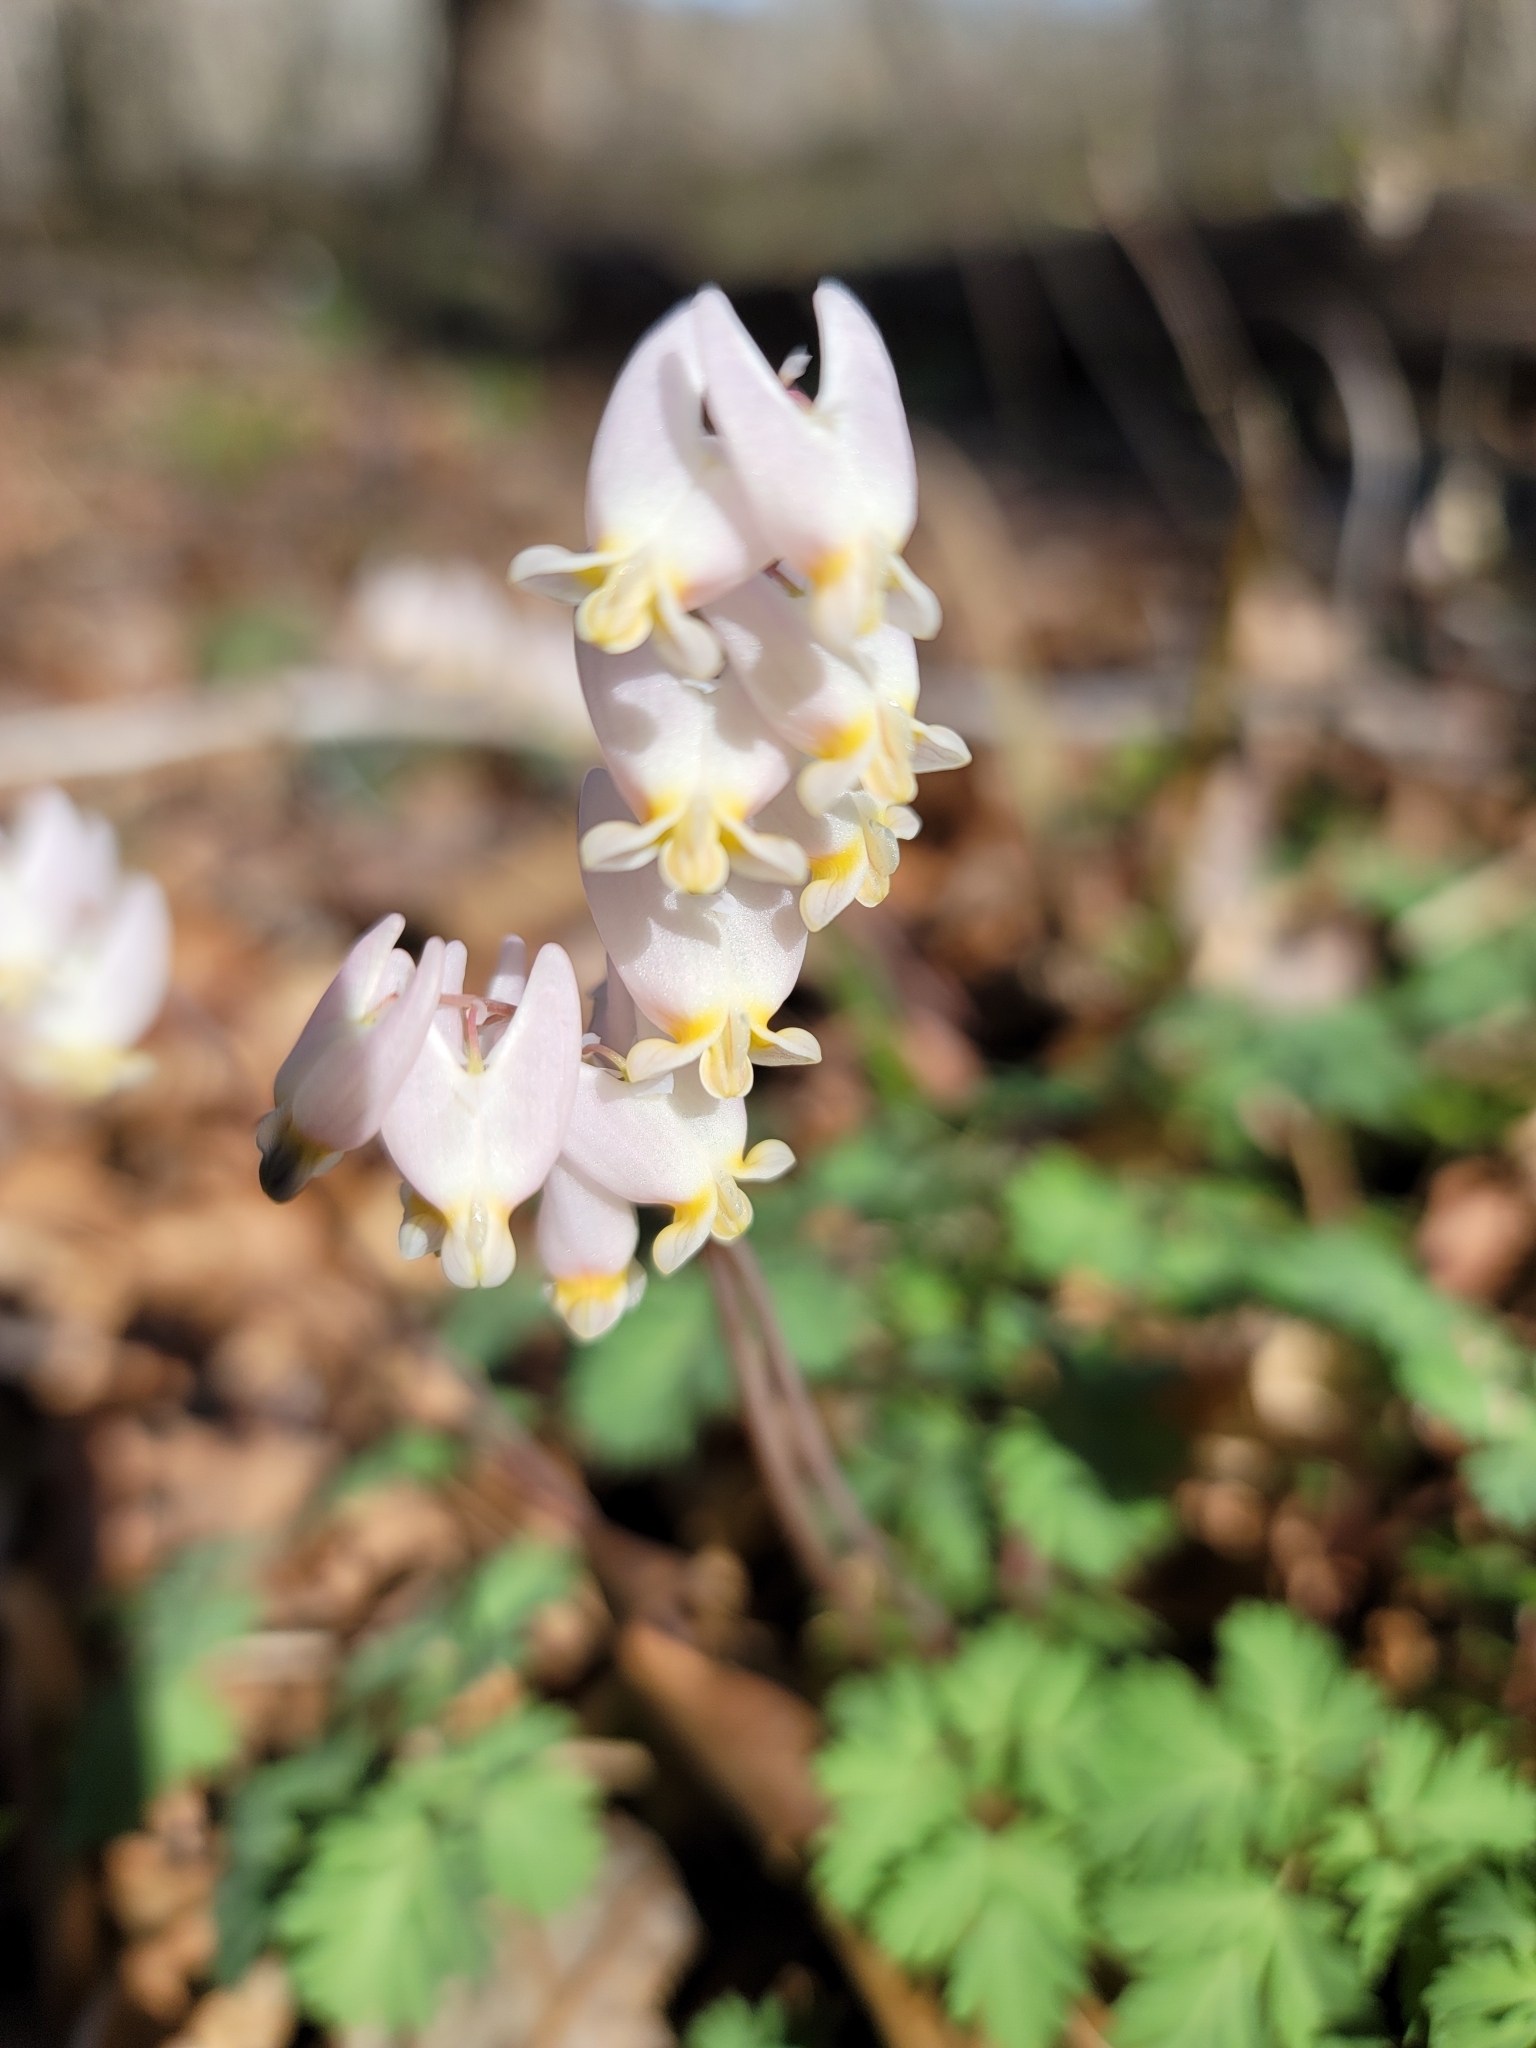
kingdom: Plantae
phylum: Tracheophyta
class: Magnoliopsida
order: Ranunculales
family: Papaveraceae
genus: Dicentra
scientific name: Dicentra cucullaria
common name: Dutchman's breeches
